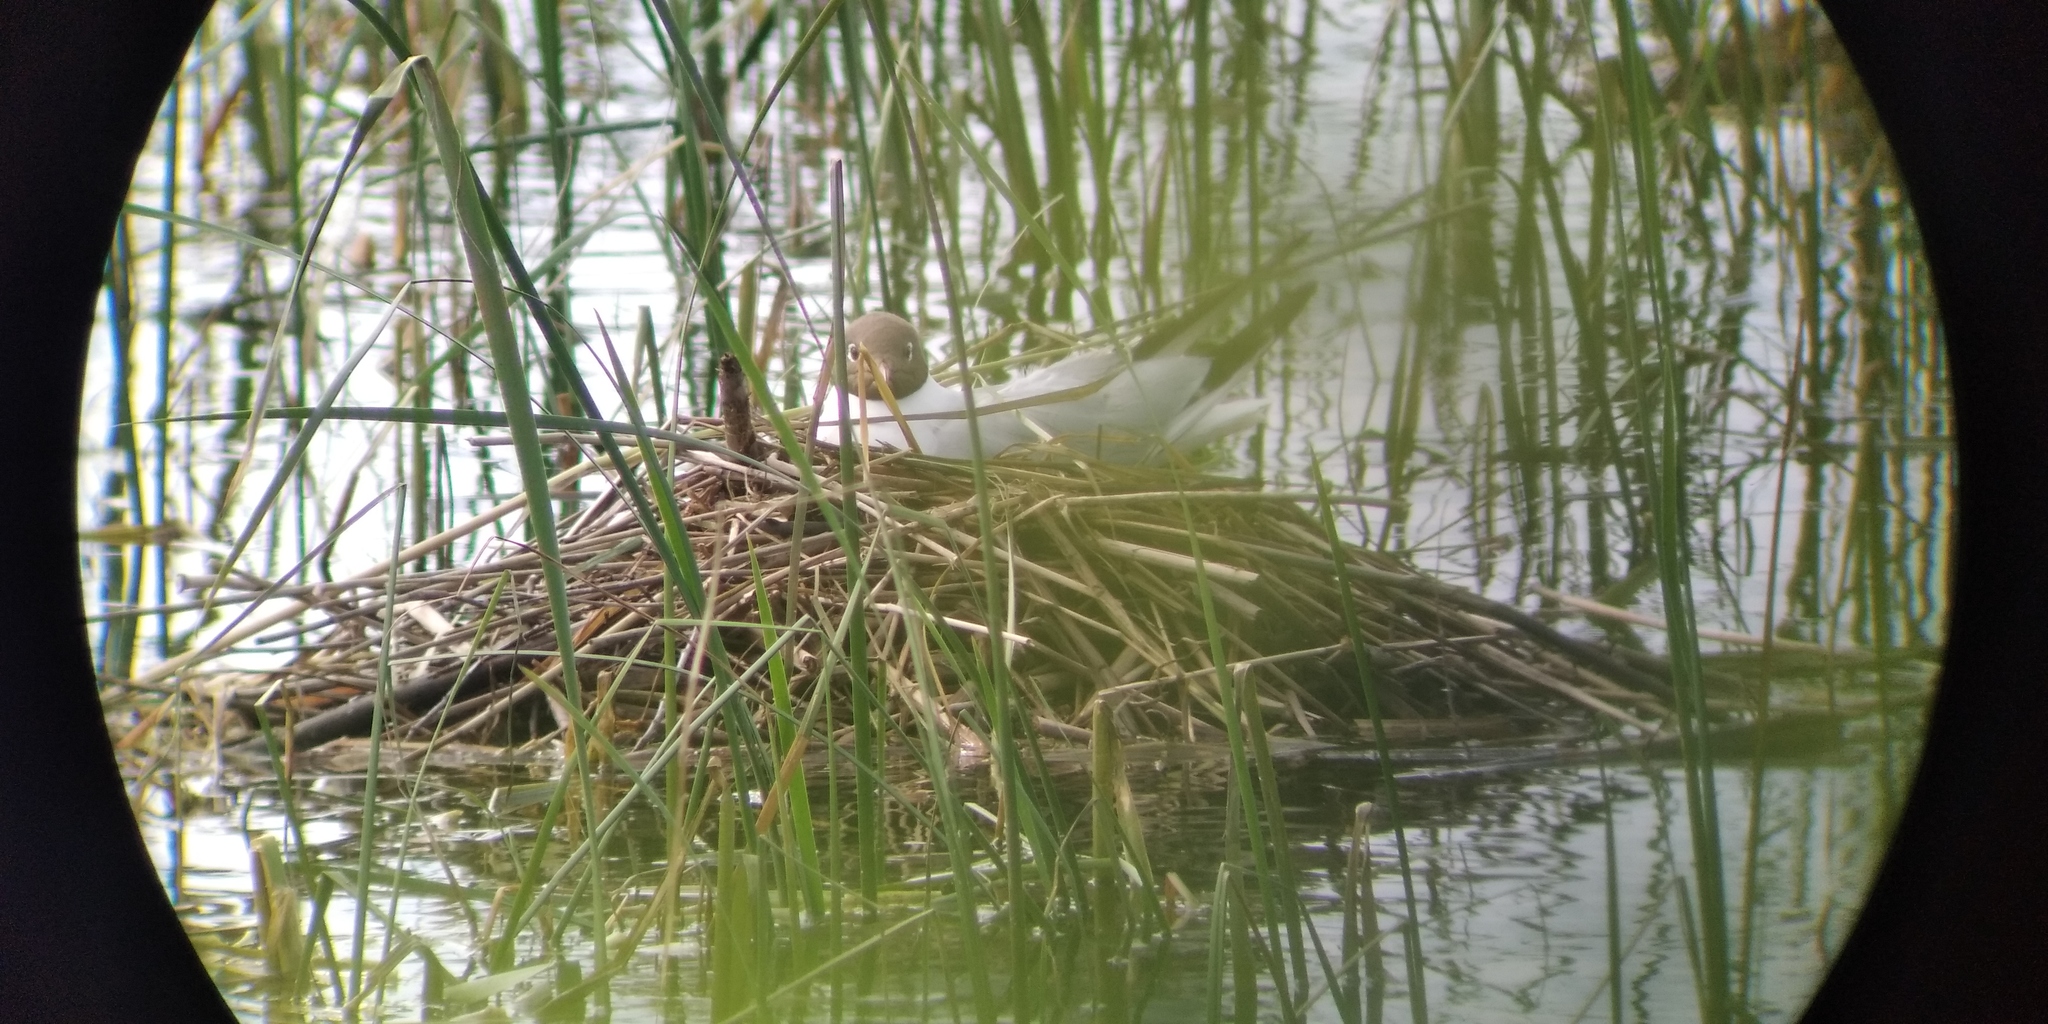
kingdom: Animalia
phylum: Chordata
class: Aves
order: Charadriiformes
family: Laridae
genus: Chroicocephalus
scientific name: Chroicocephalus ridibundus
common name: Black-headed gull
